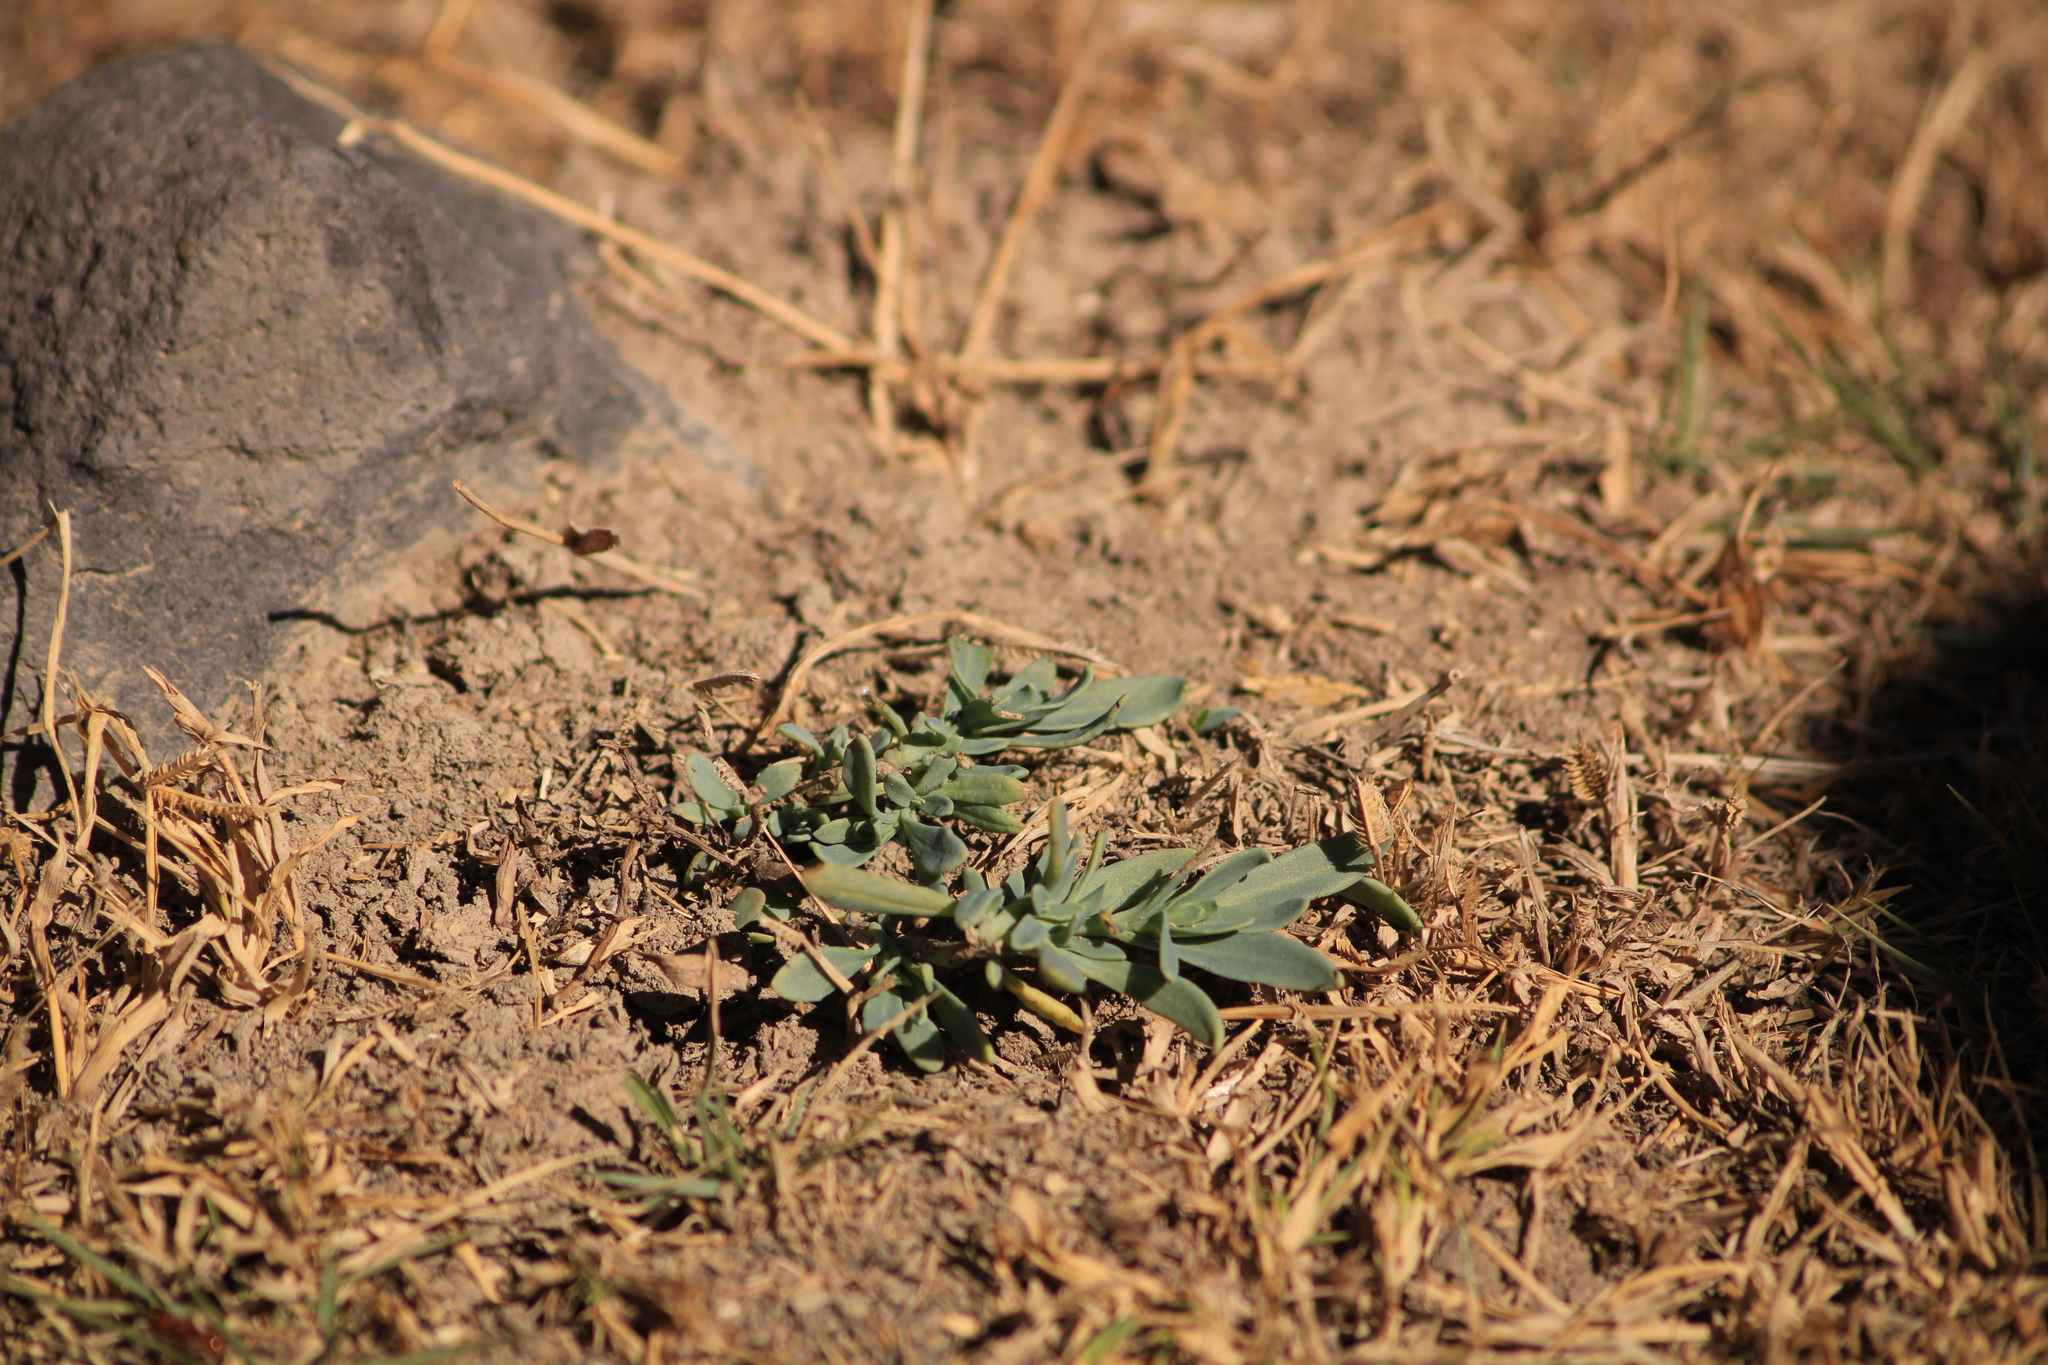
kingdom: Plantae
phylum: Tracheophyta
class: Magnoliopsida
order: Boraginales
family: Heliotropiaceae
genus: Heliotropium
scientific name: Heliotropium curassavicum
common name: Seaside heliotrope
